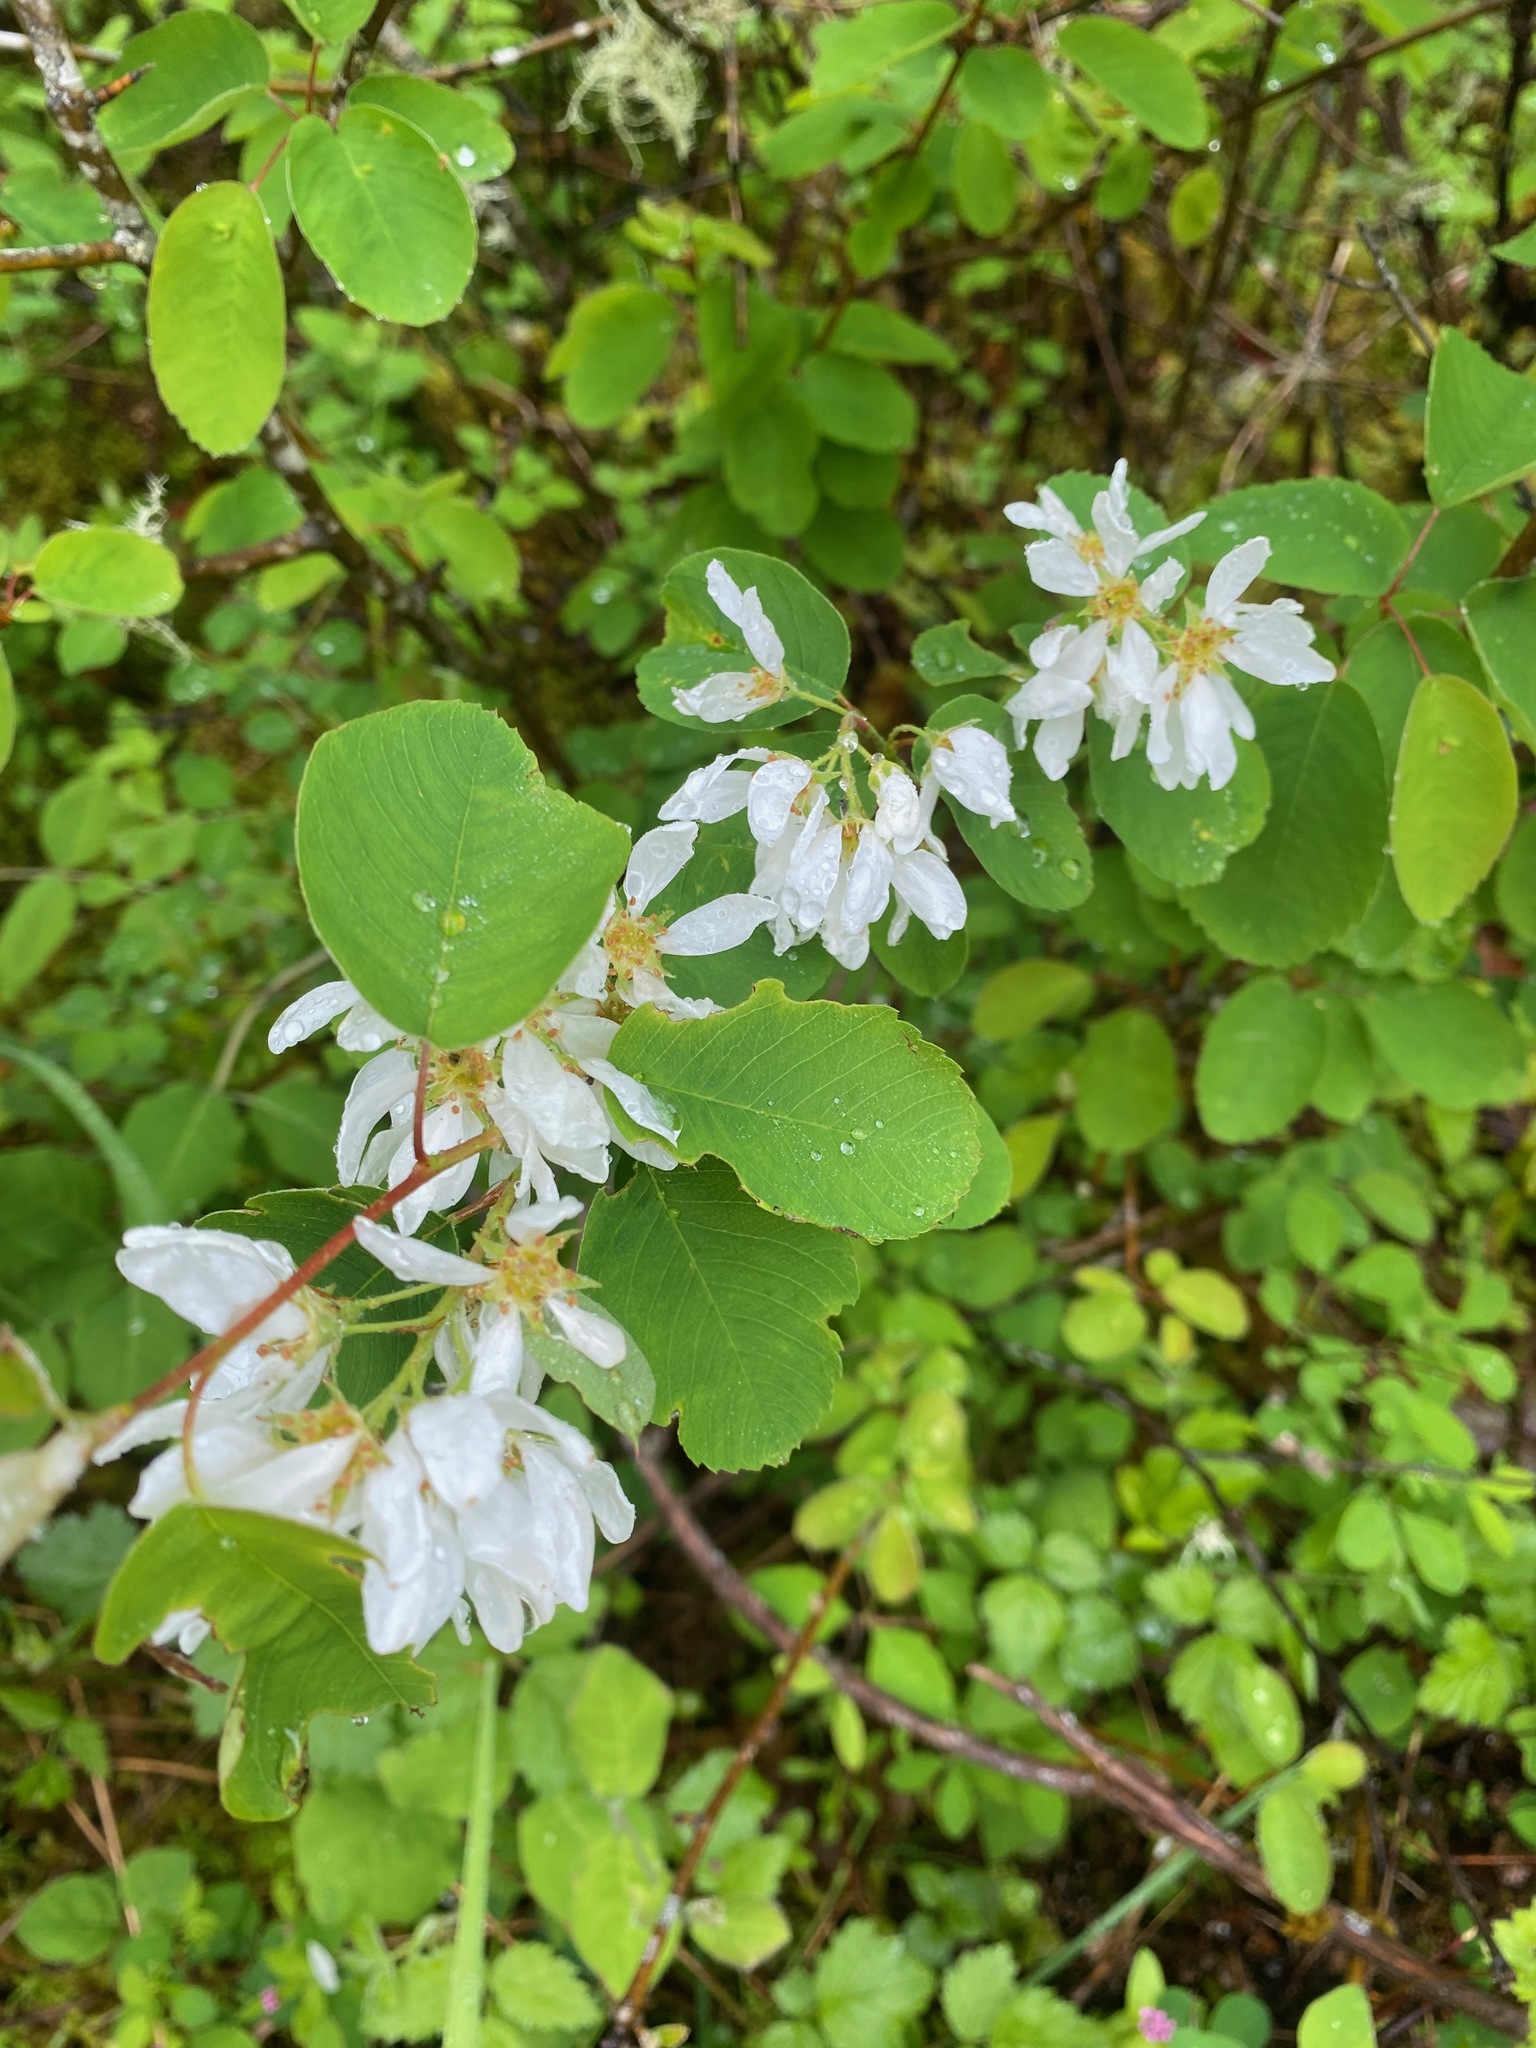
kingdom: Plantae
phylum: Tracheophyta
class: Magnoliopsida
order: Rosales
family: Rosaceae
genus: Amelanchier
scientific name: Amelanchier alnifolia
